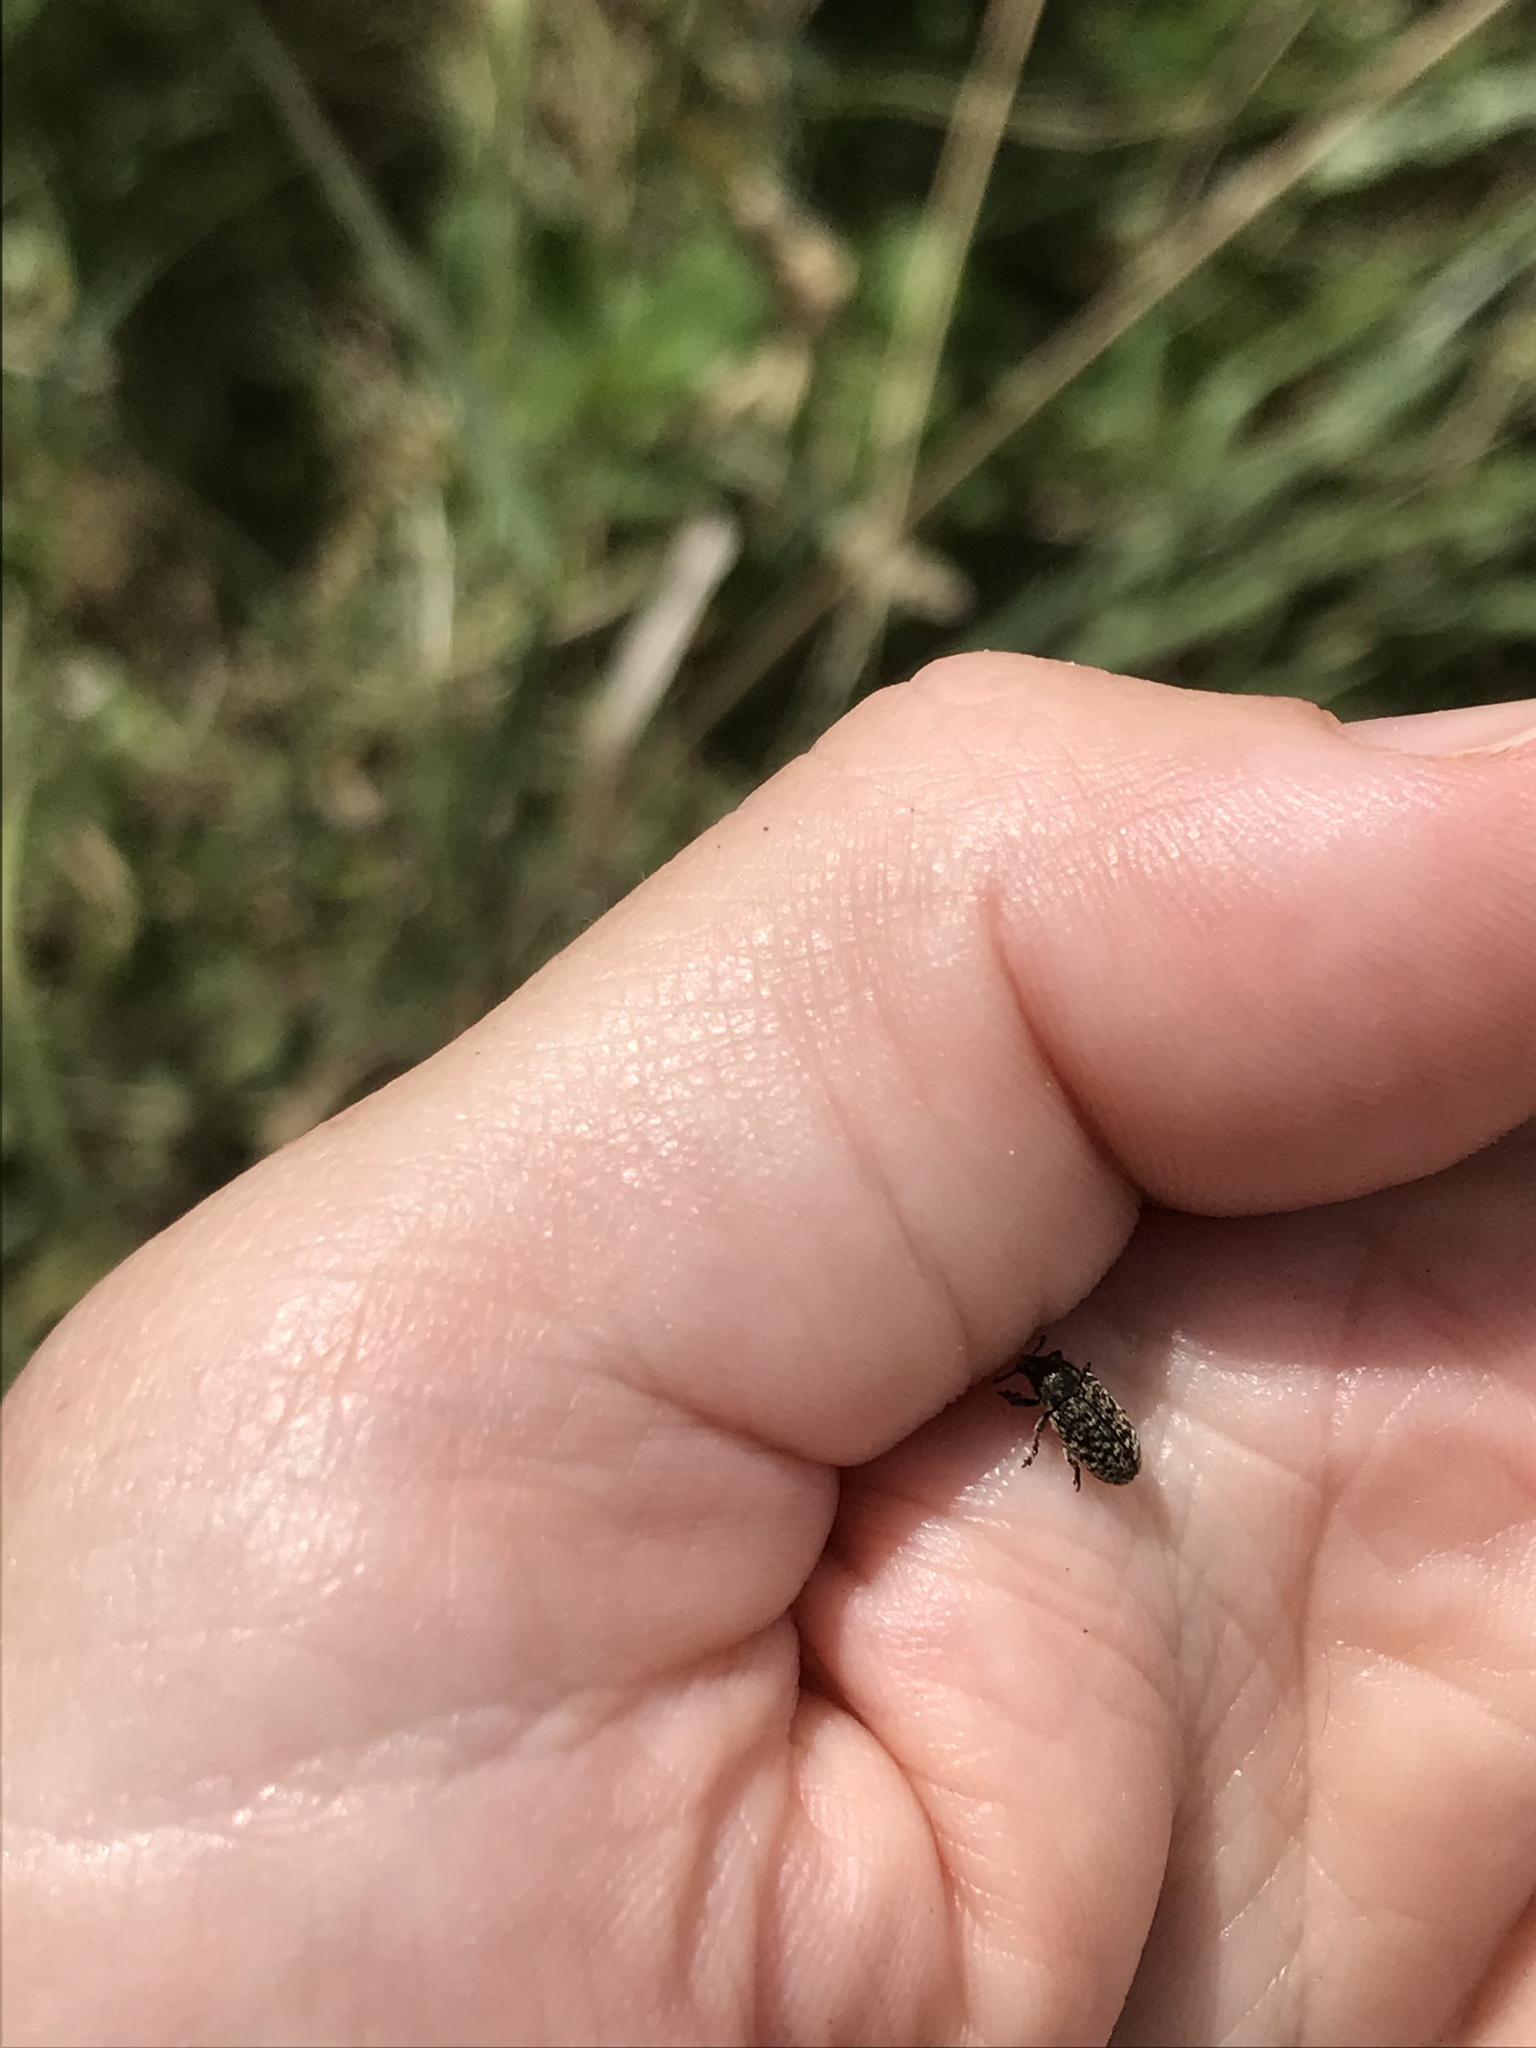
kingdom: Animalia
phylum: Arthropoda
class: Insecta
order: Coleoptera
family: Curculionidae
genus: Rhinocyllus
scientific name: Rhinocyllus conicus
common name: Weevil
